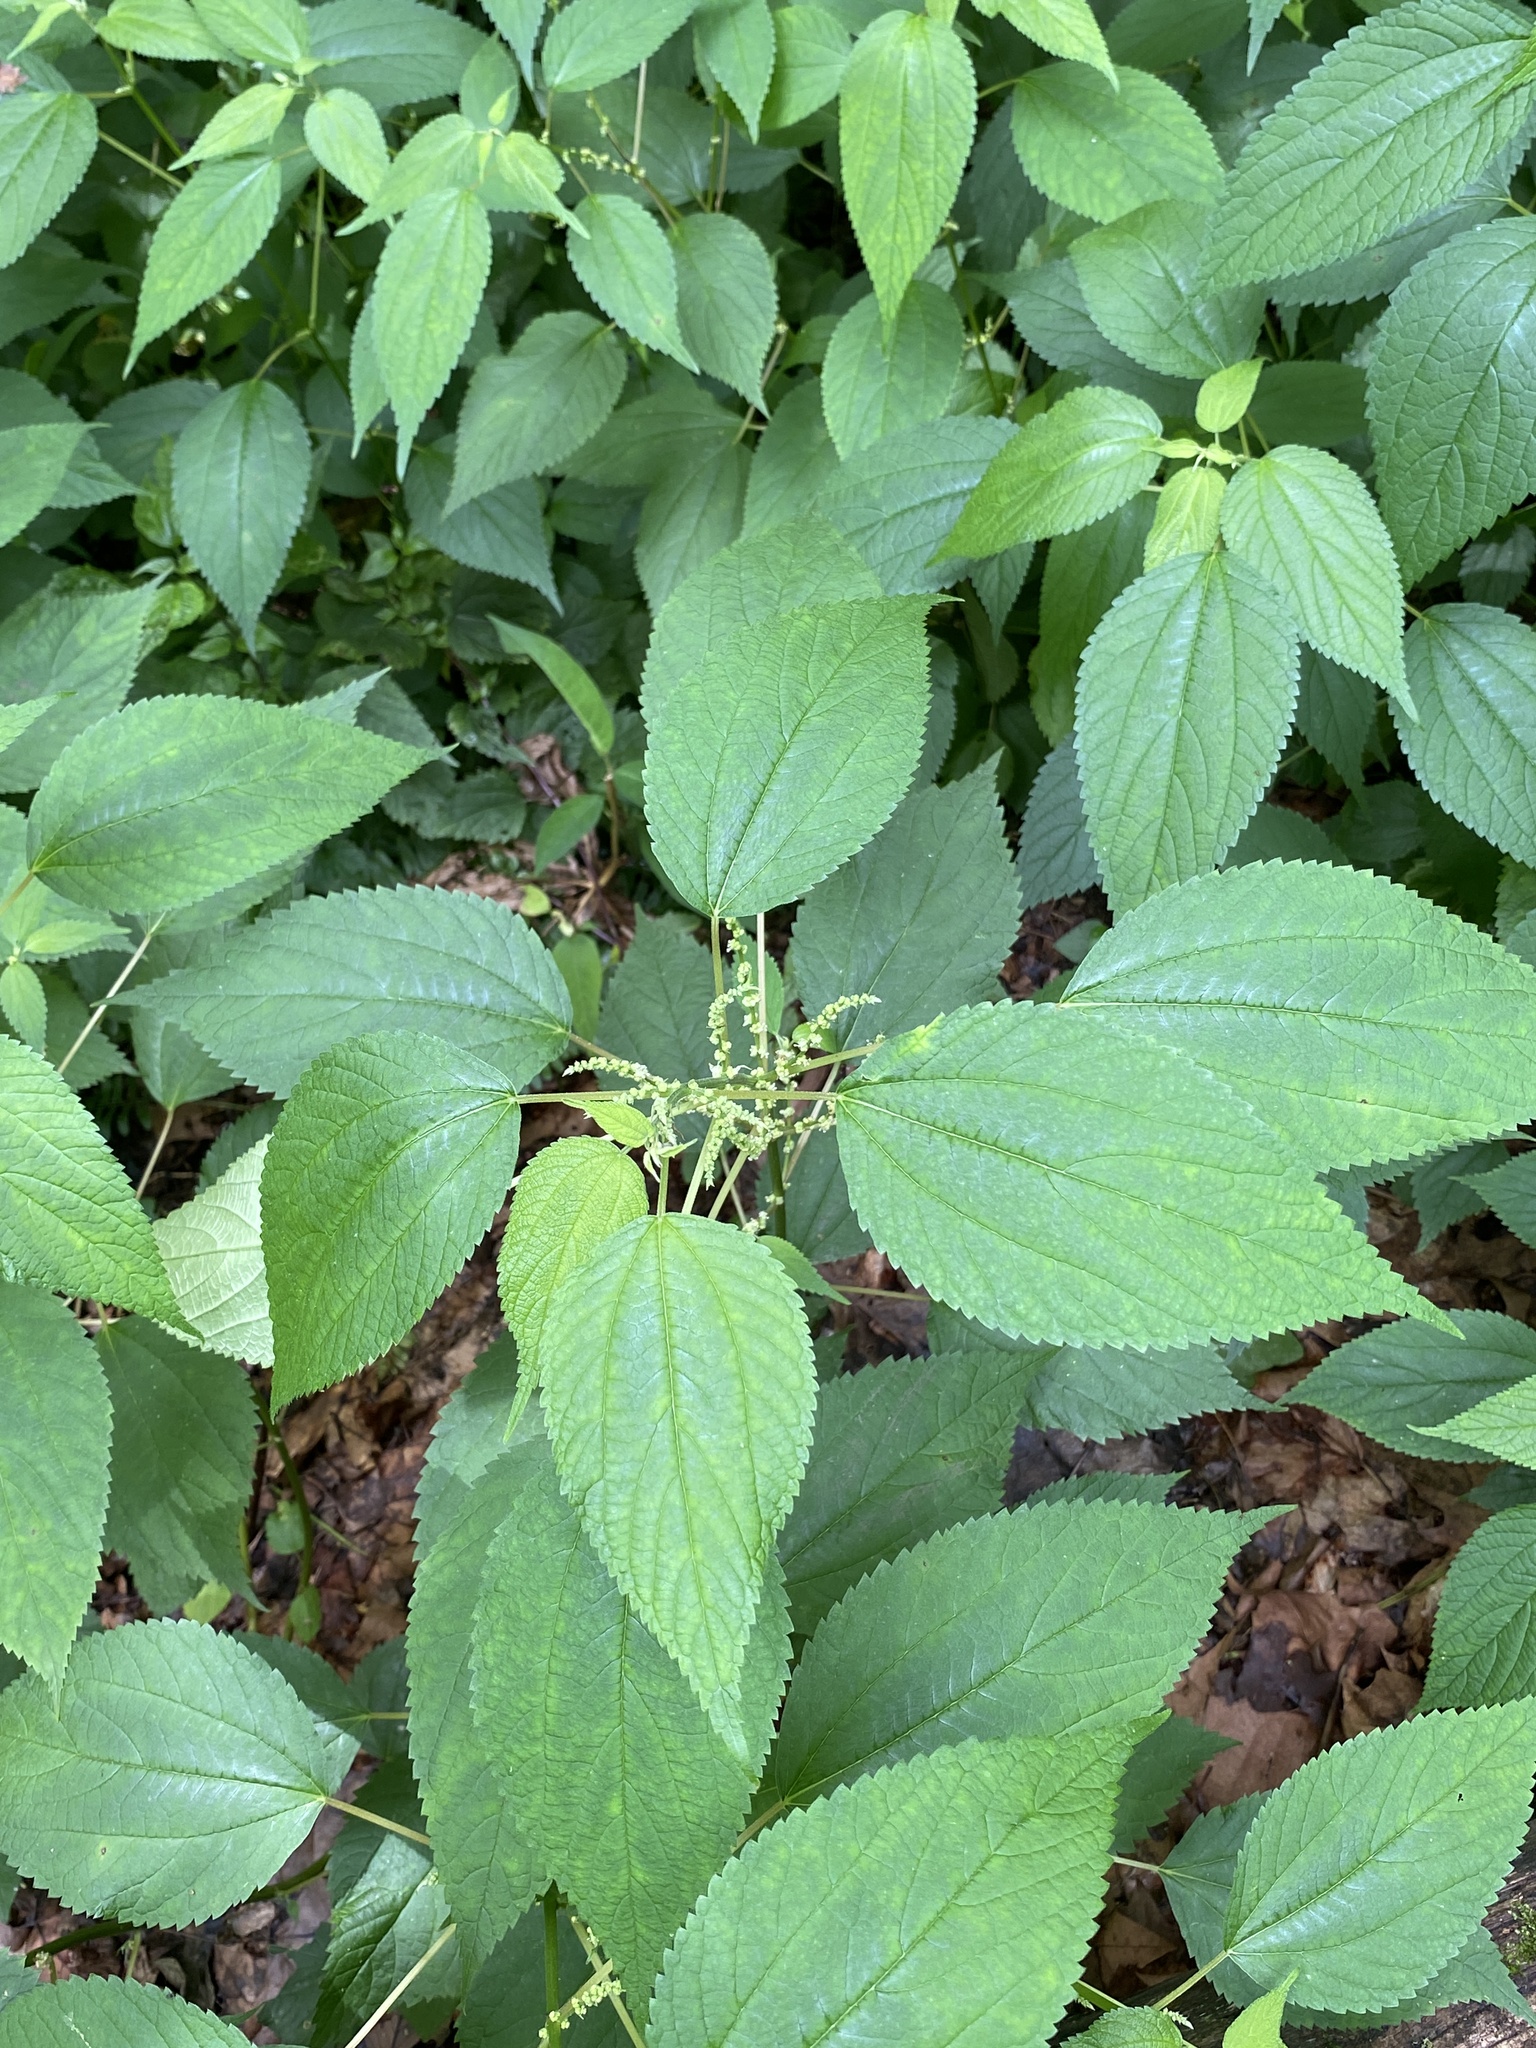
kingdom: Plantae
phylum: Tracheophyta
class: Magnoliopsida
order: Rosales
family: Urticaceae
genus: Boehmeria
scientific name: Boehmeria cylindrica
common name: Bog-hemp
